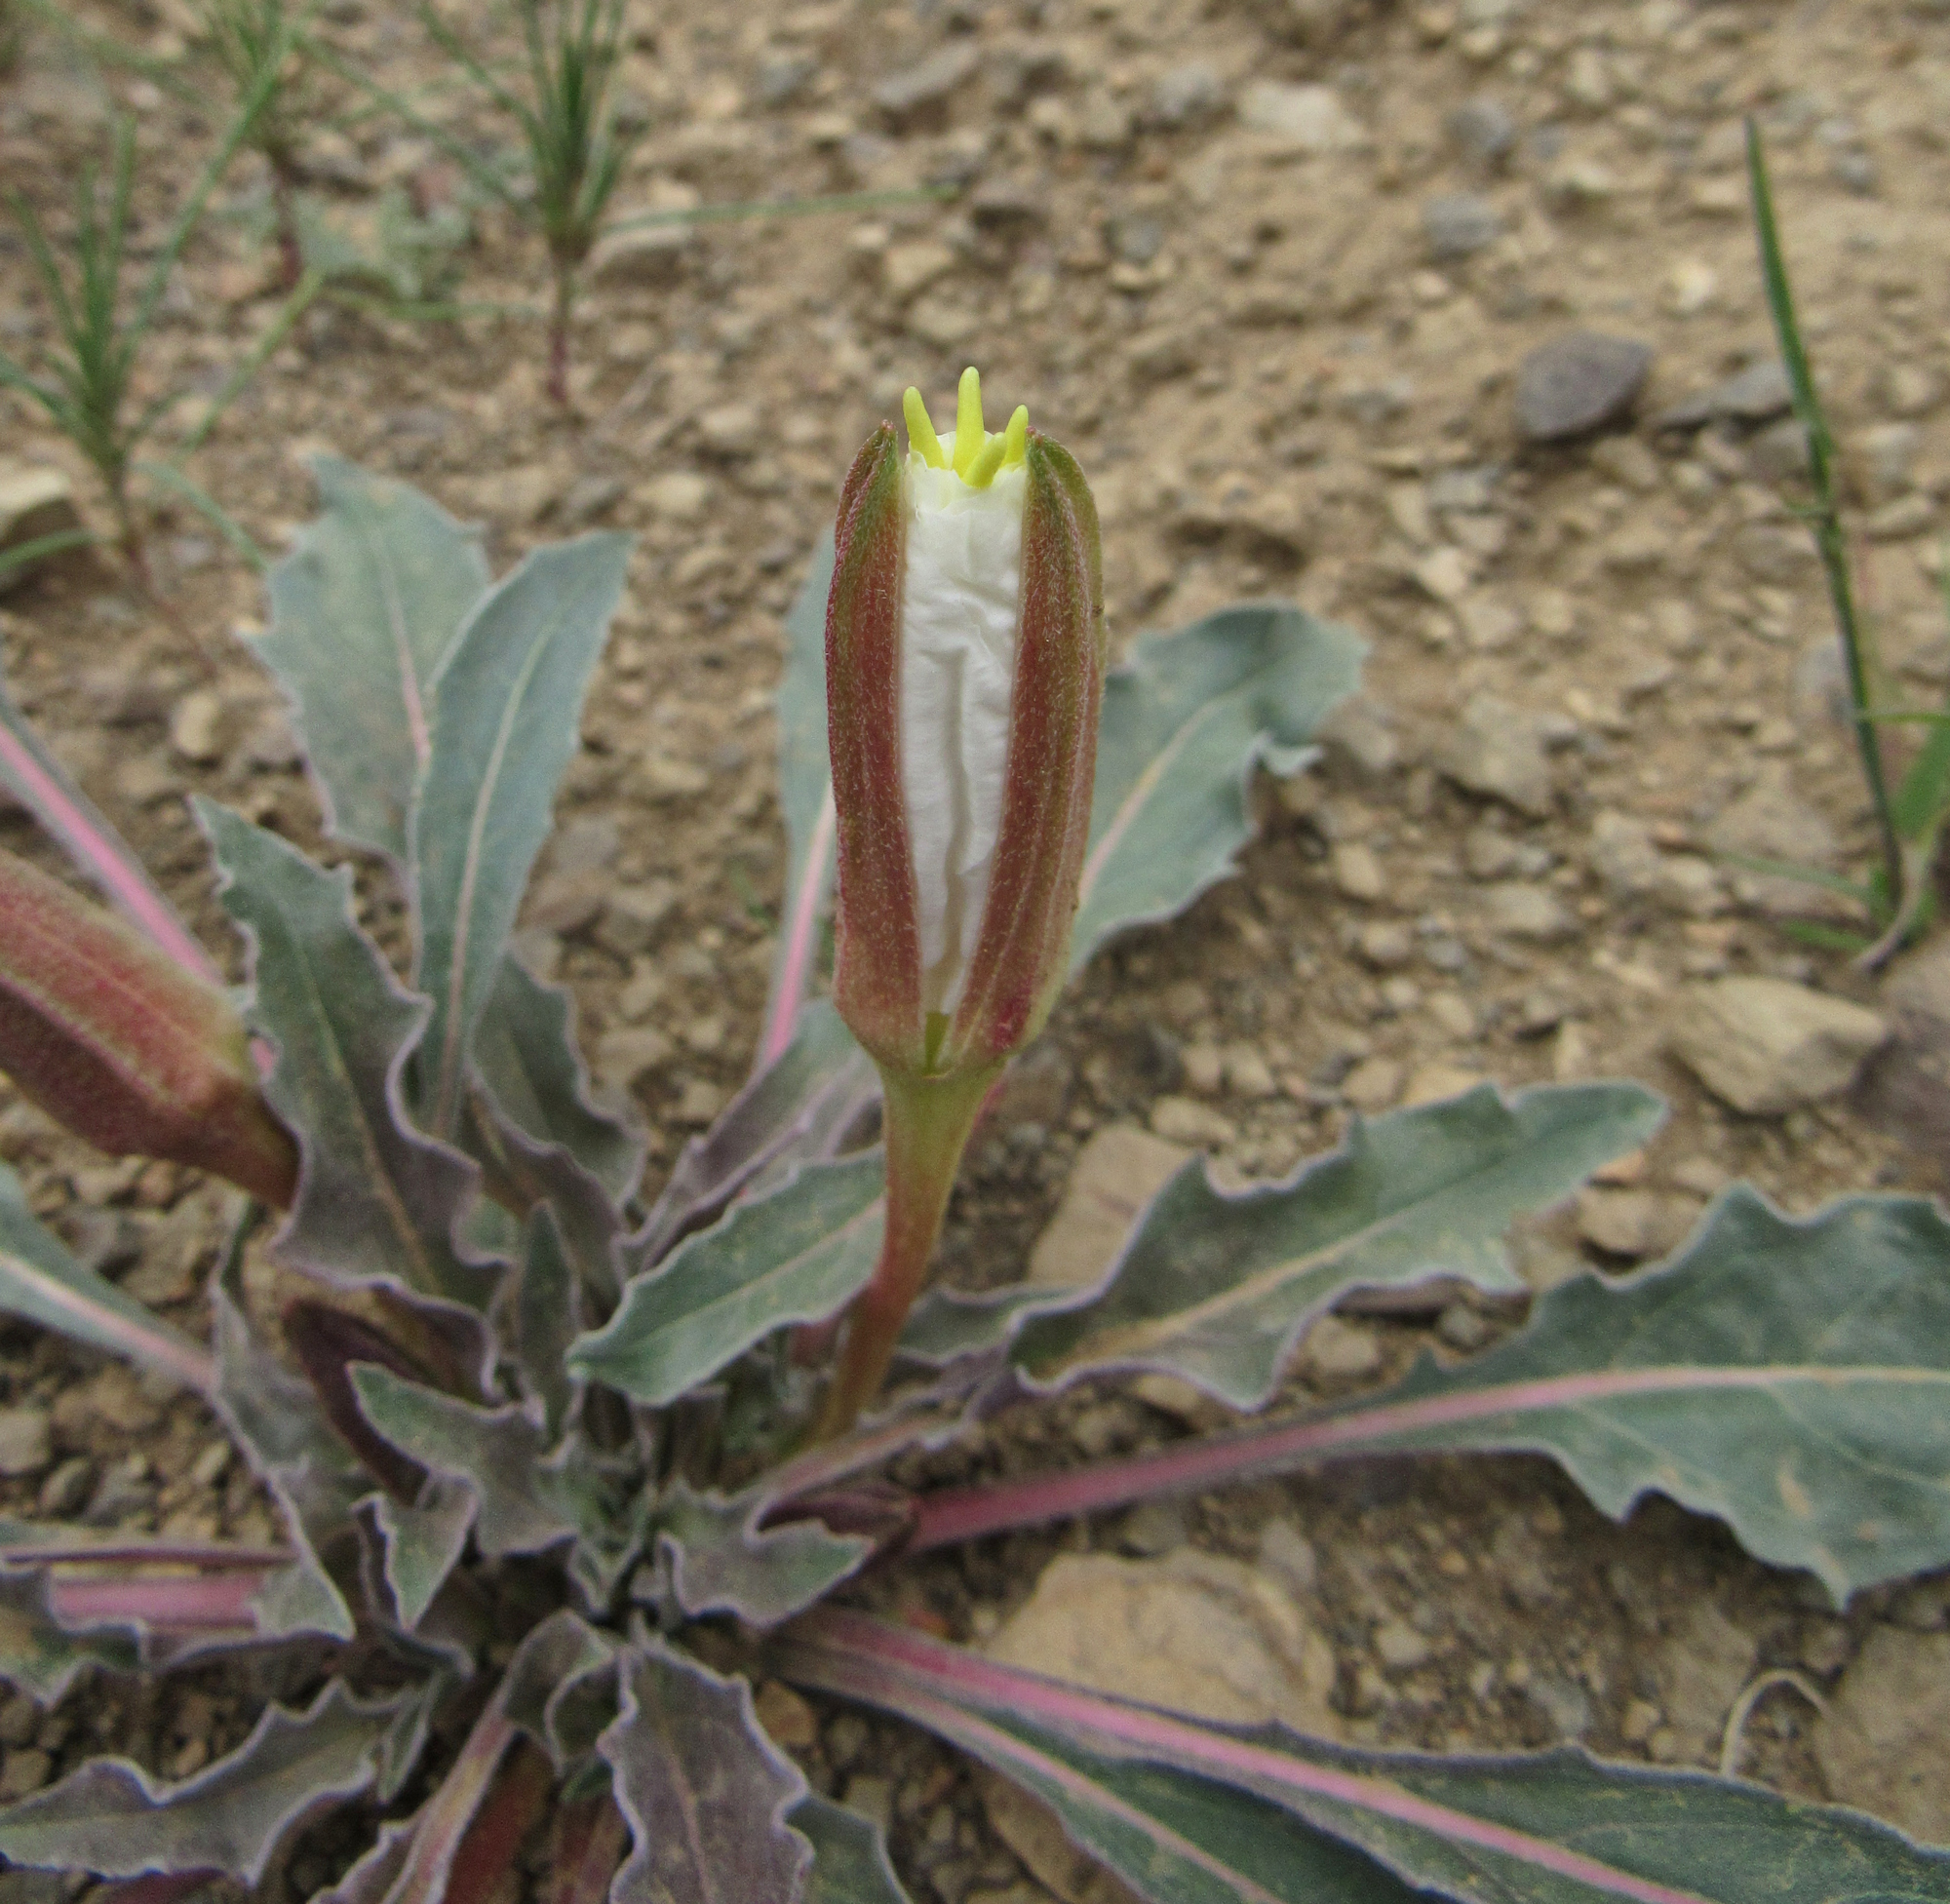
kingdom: Plantae
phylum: Tracheophyta
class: Magnoliopsida
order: Myrtales
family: Onagraceae
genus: Oenothera
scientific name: Oenothera cespitosa
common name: Tufted evening-primrose
